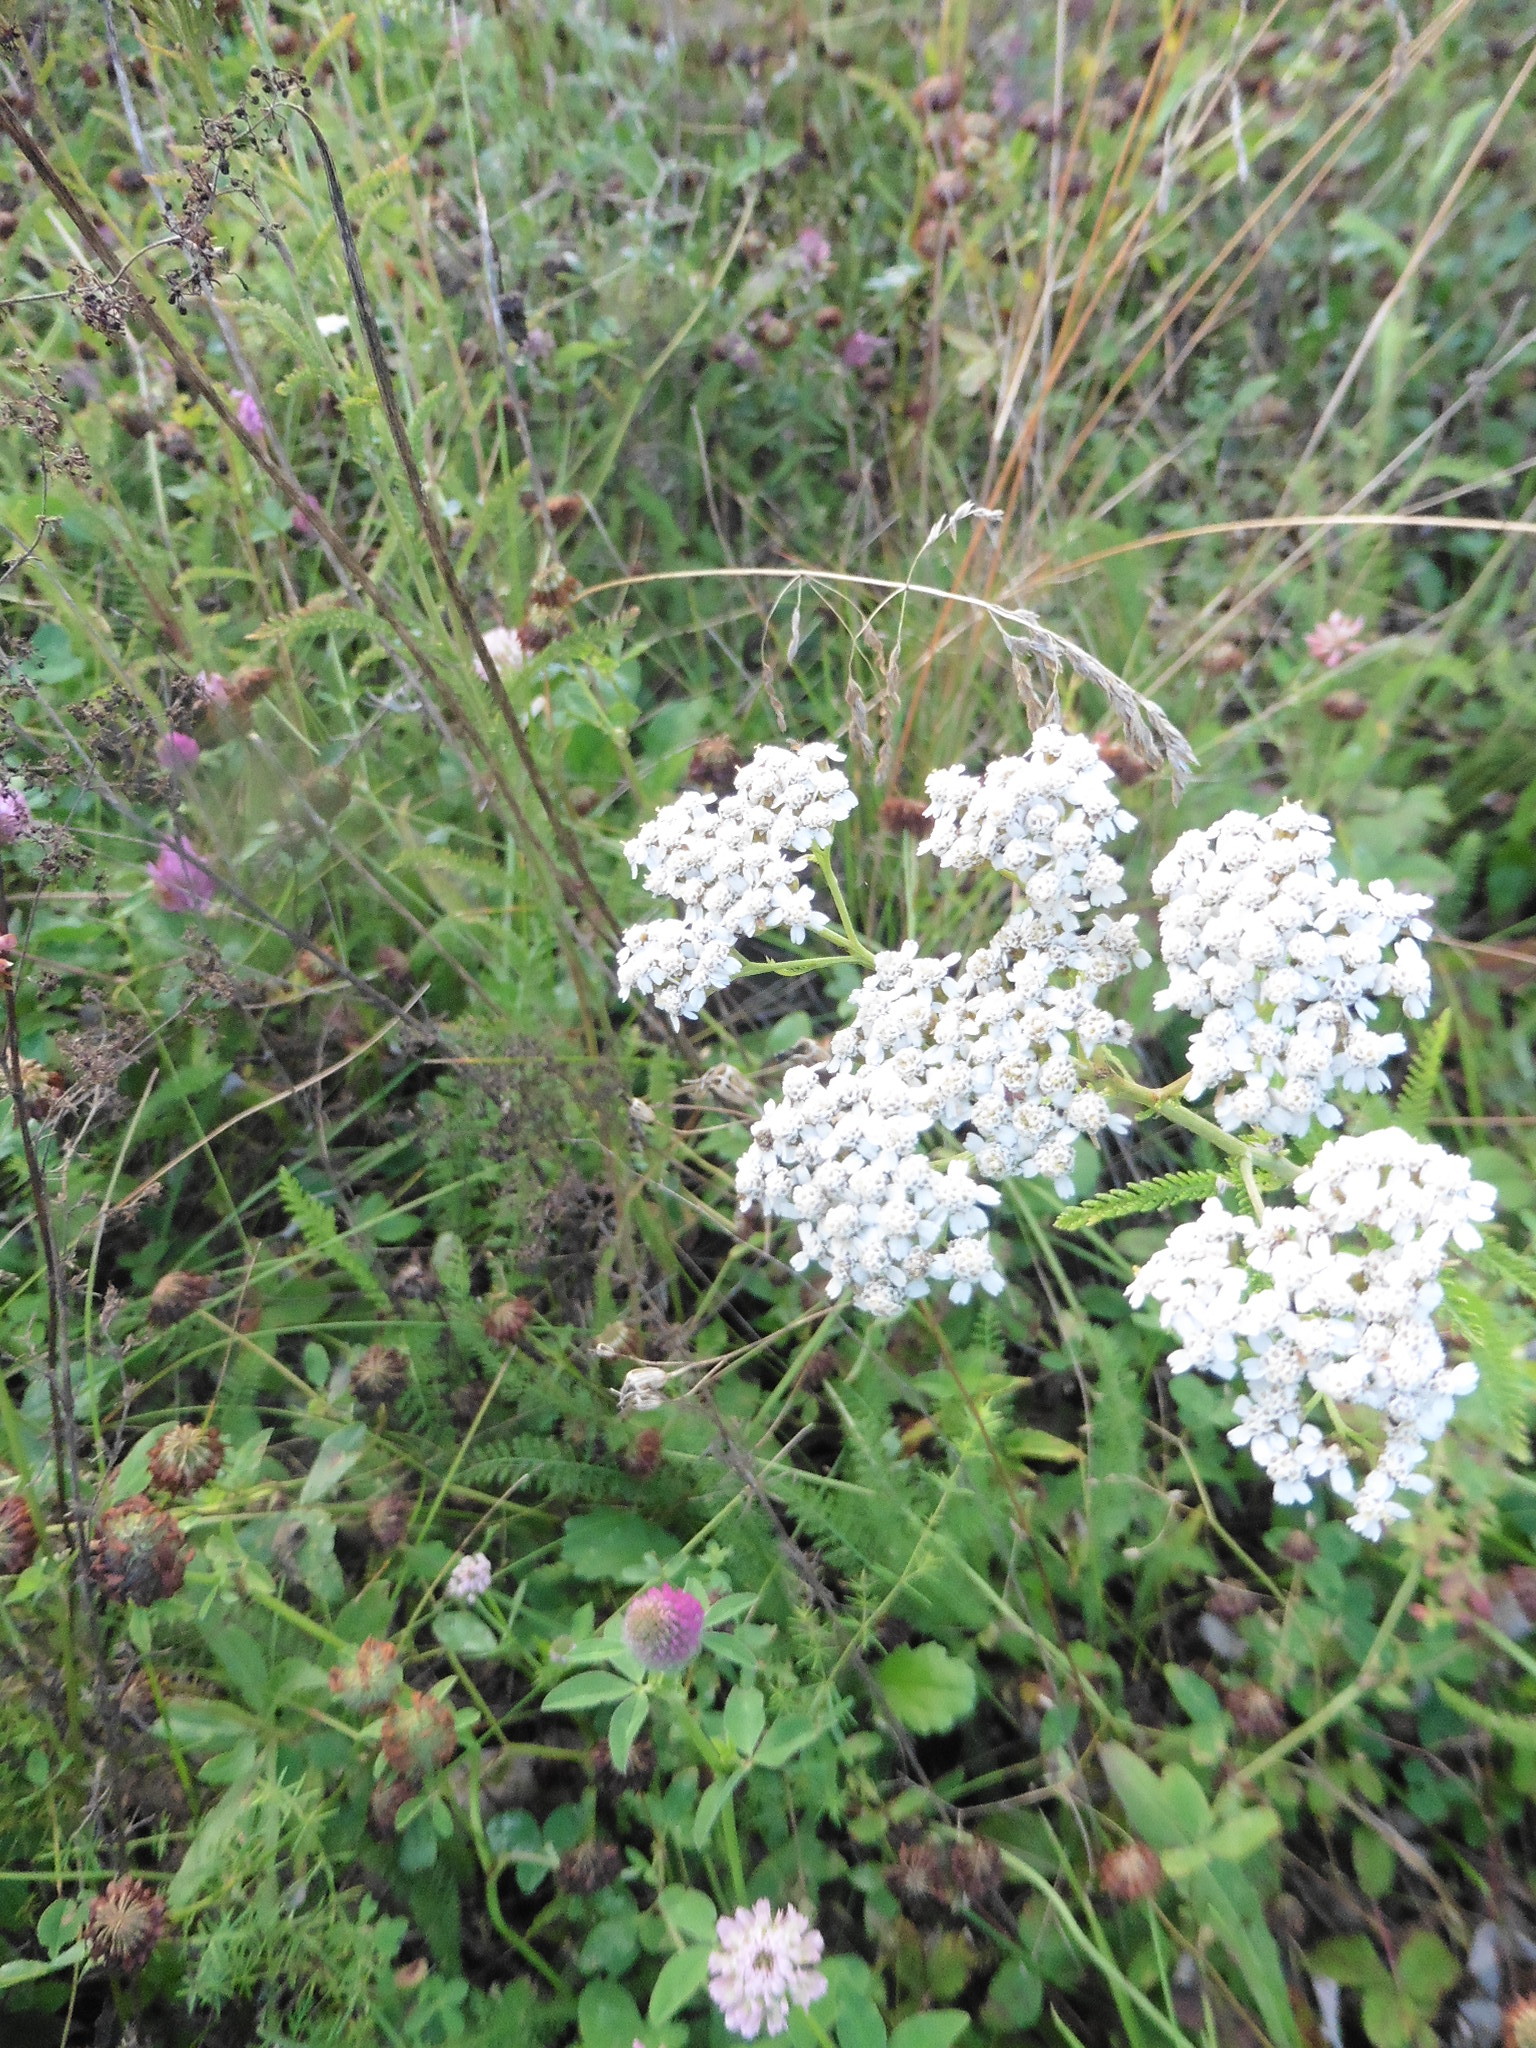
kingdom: Plantae
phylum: Tracheophyta
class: Magnoliopsida
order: Asterales
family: Asteraceae
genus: Achillea
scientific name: Achillea millefolium
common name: Yarrow
